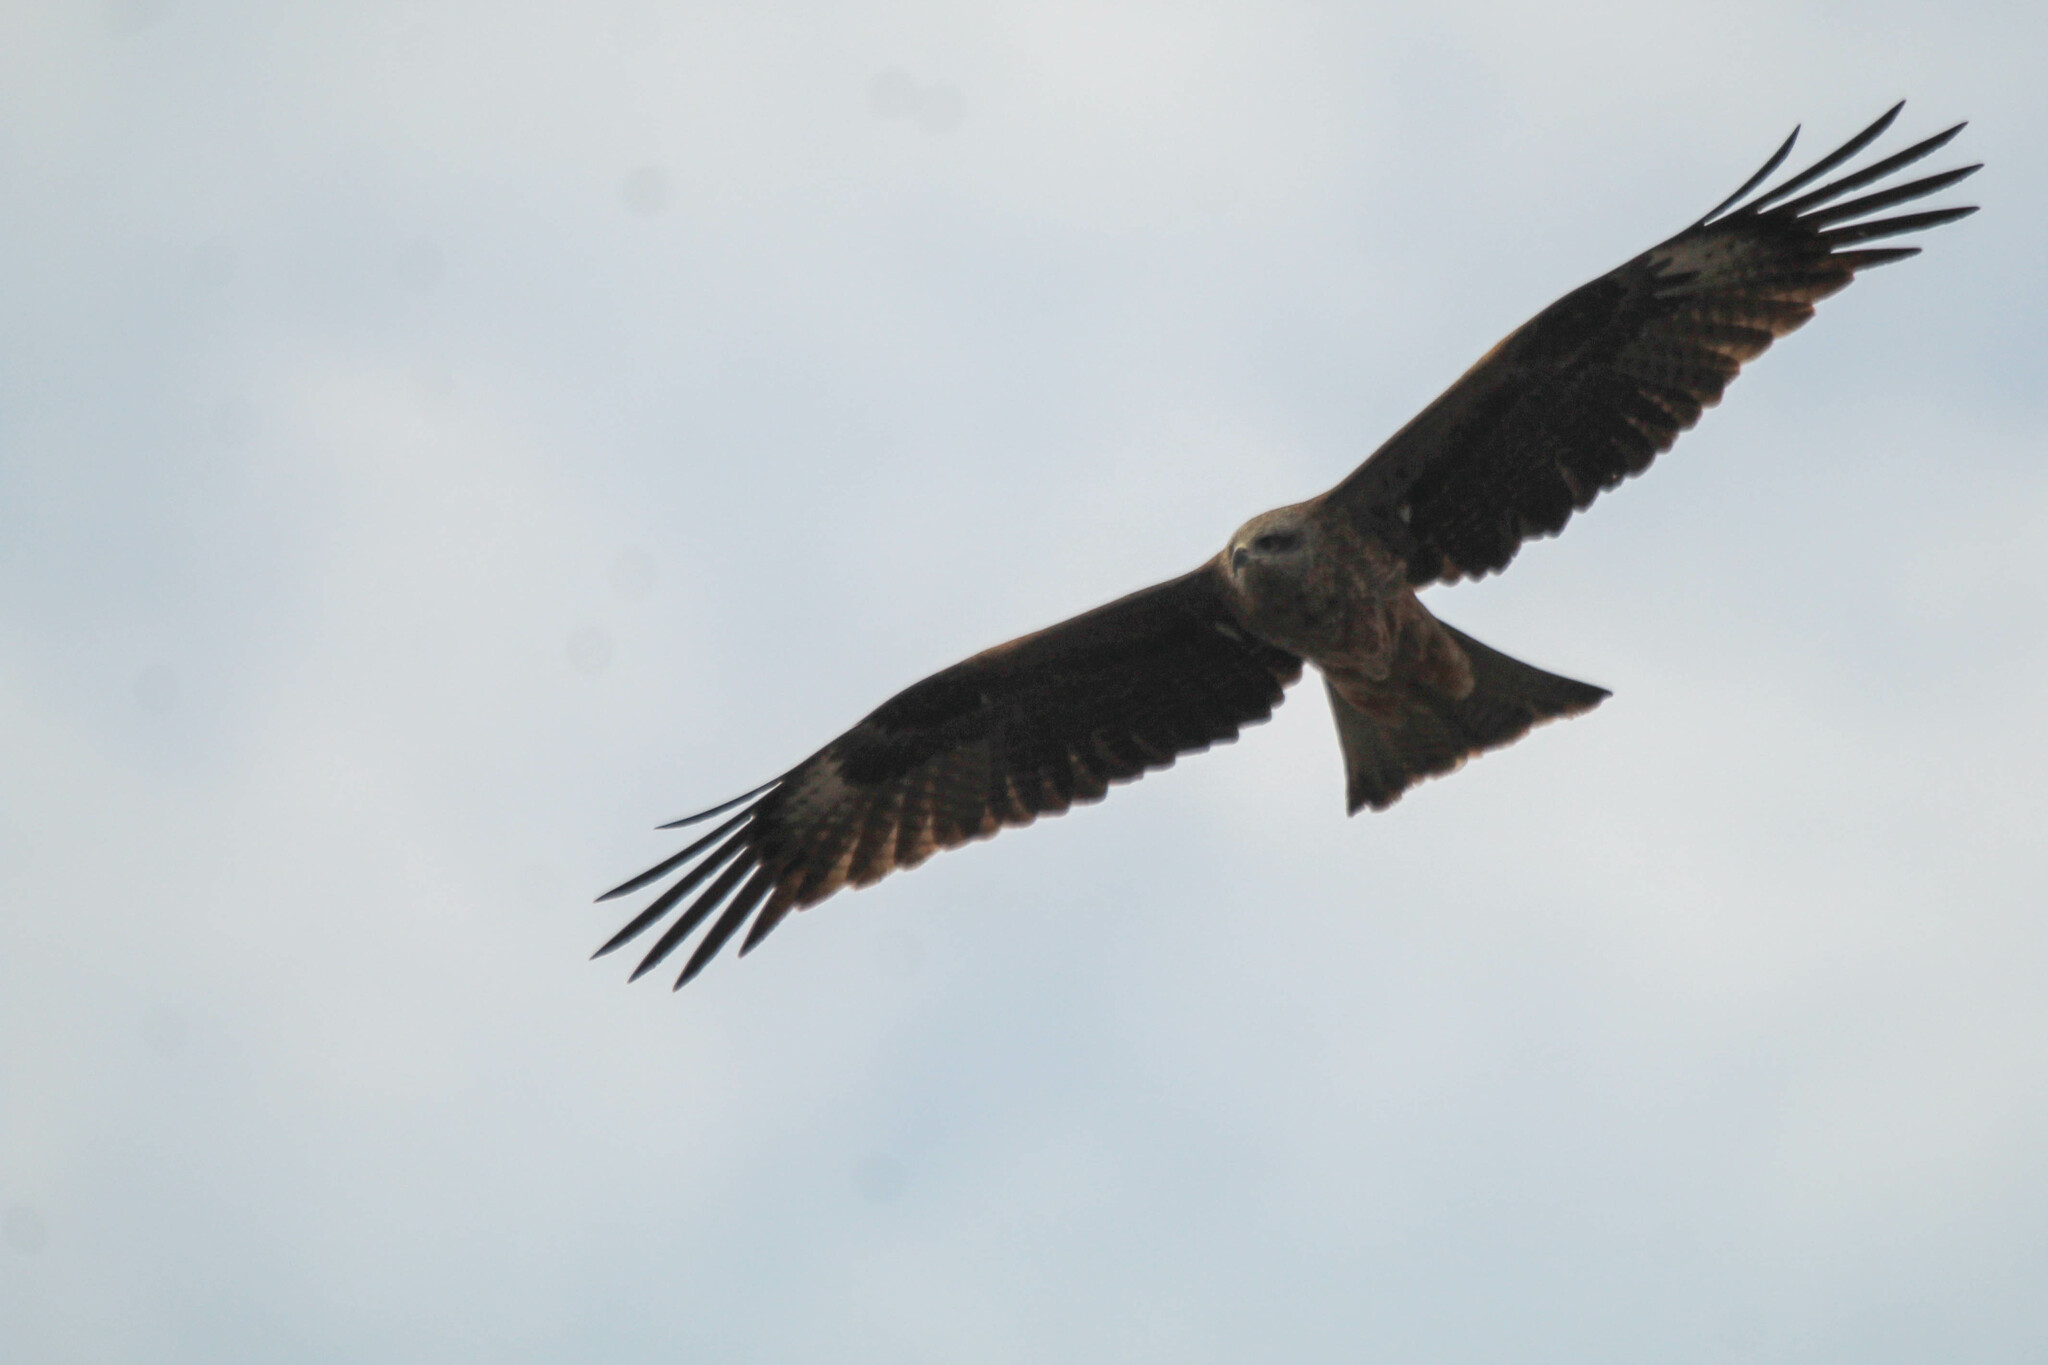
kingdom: Animalia
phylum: Chordata
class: Aves
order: Accipitriformes
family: Accipitridae
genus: Milvus
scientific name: Milvus migrans
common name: Black kite
